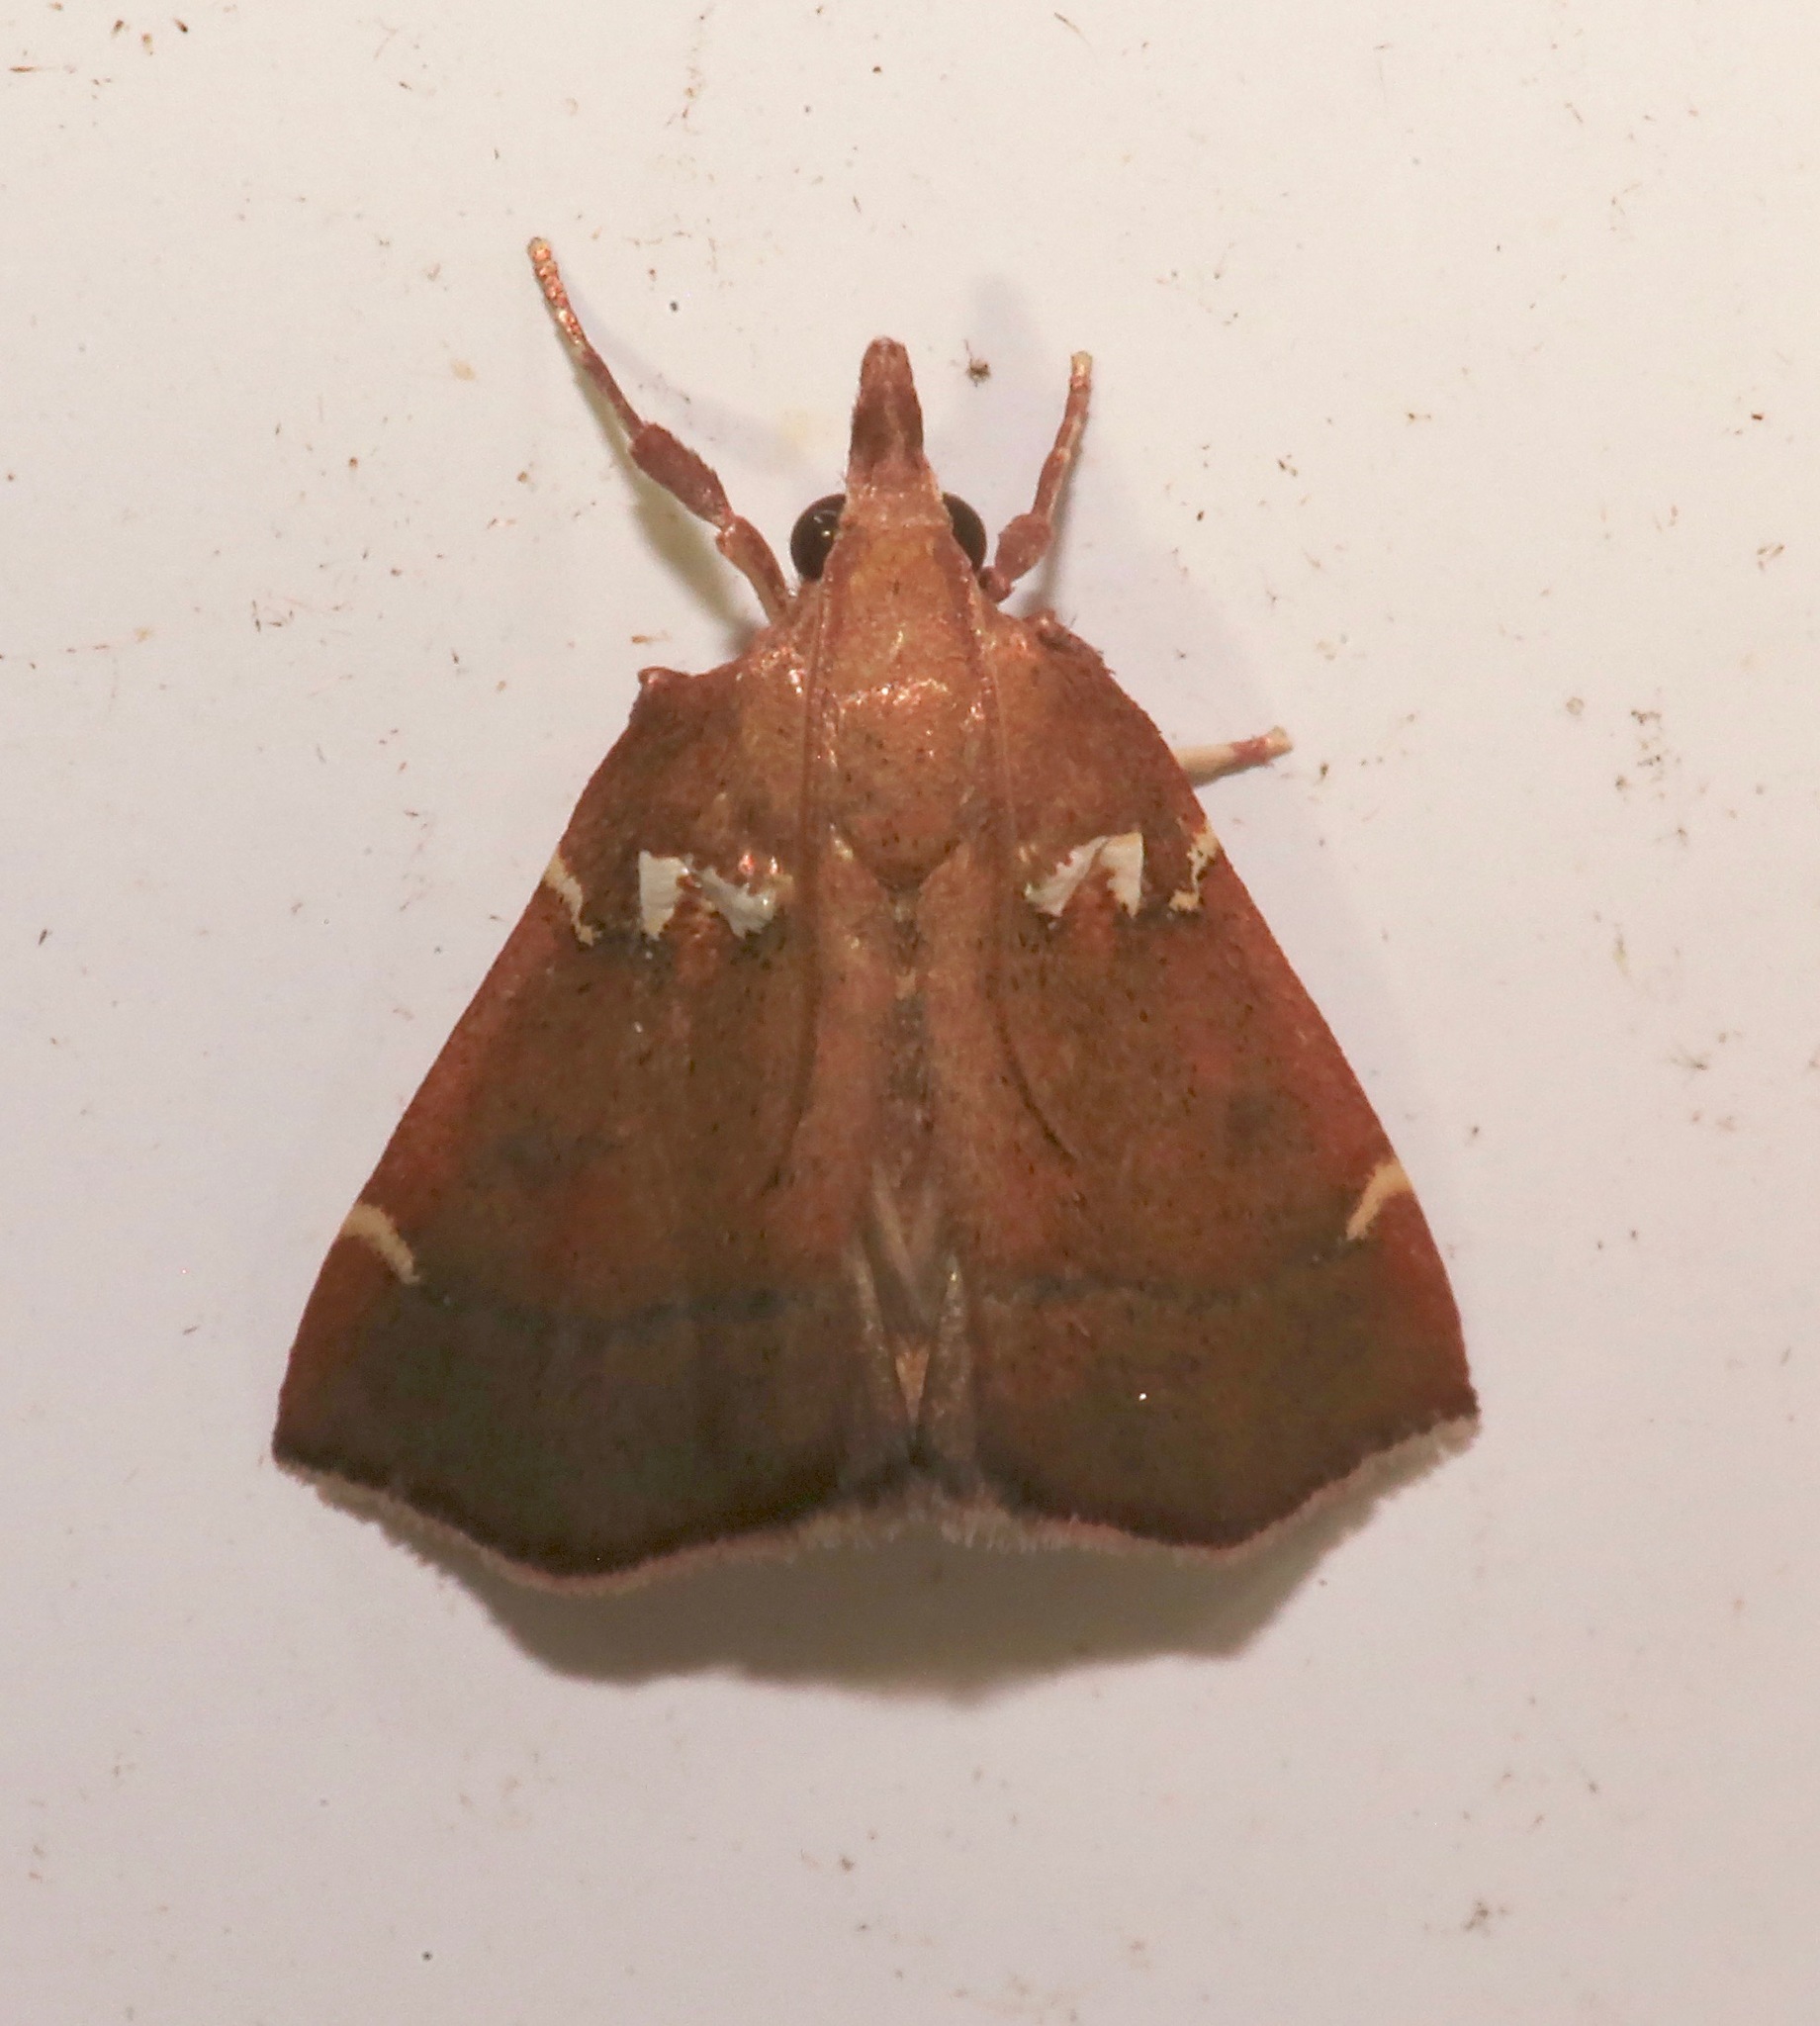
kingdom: Animalia
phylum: Arthropoda
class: Insecta
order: Lepidoptera
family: Pyralidae
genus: Lepidomys
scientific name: Lepidomys irrenosa
